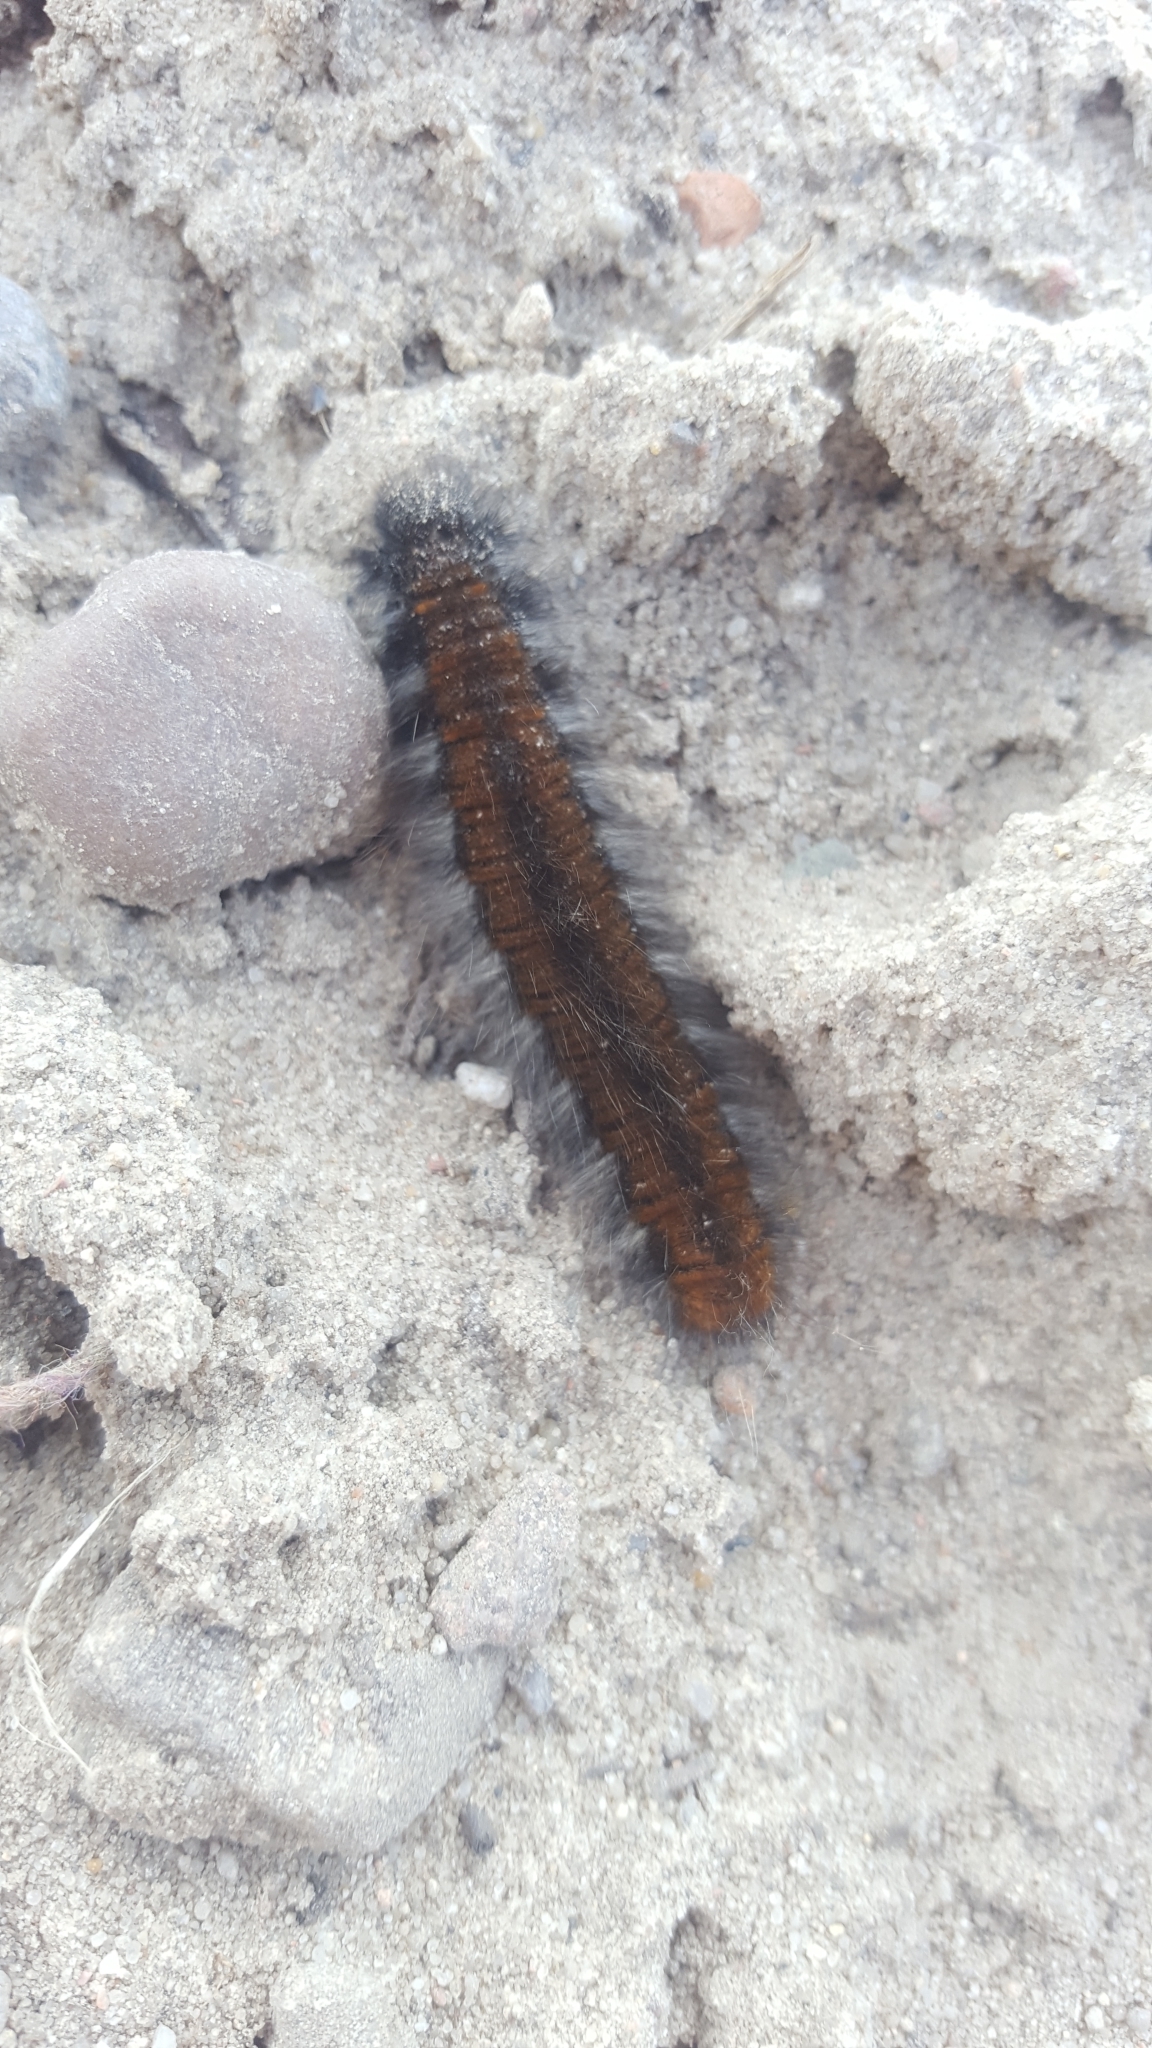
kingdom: Animalia
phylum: Arthropoda
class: Insecta
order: Lepidoptera
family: Lasiocampidae
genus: Macrothylacia
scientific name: Macrothylacia rubi
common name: Fox moth
